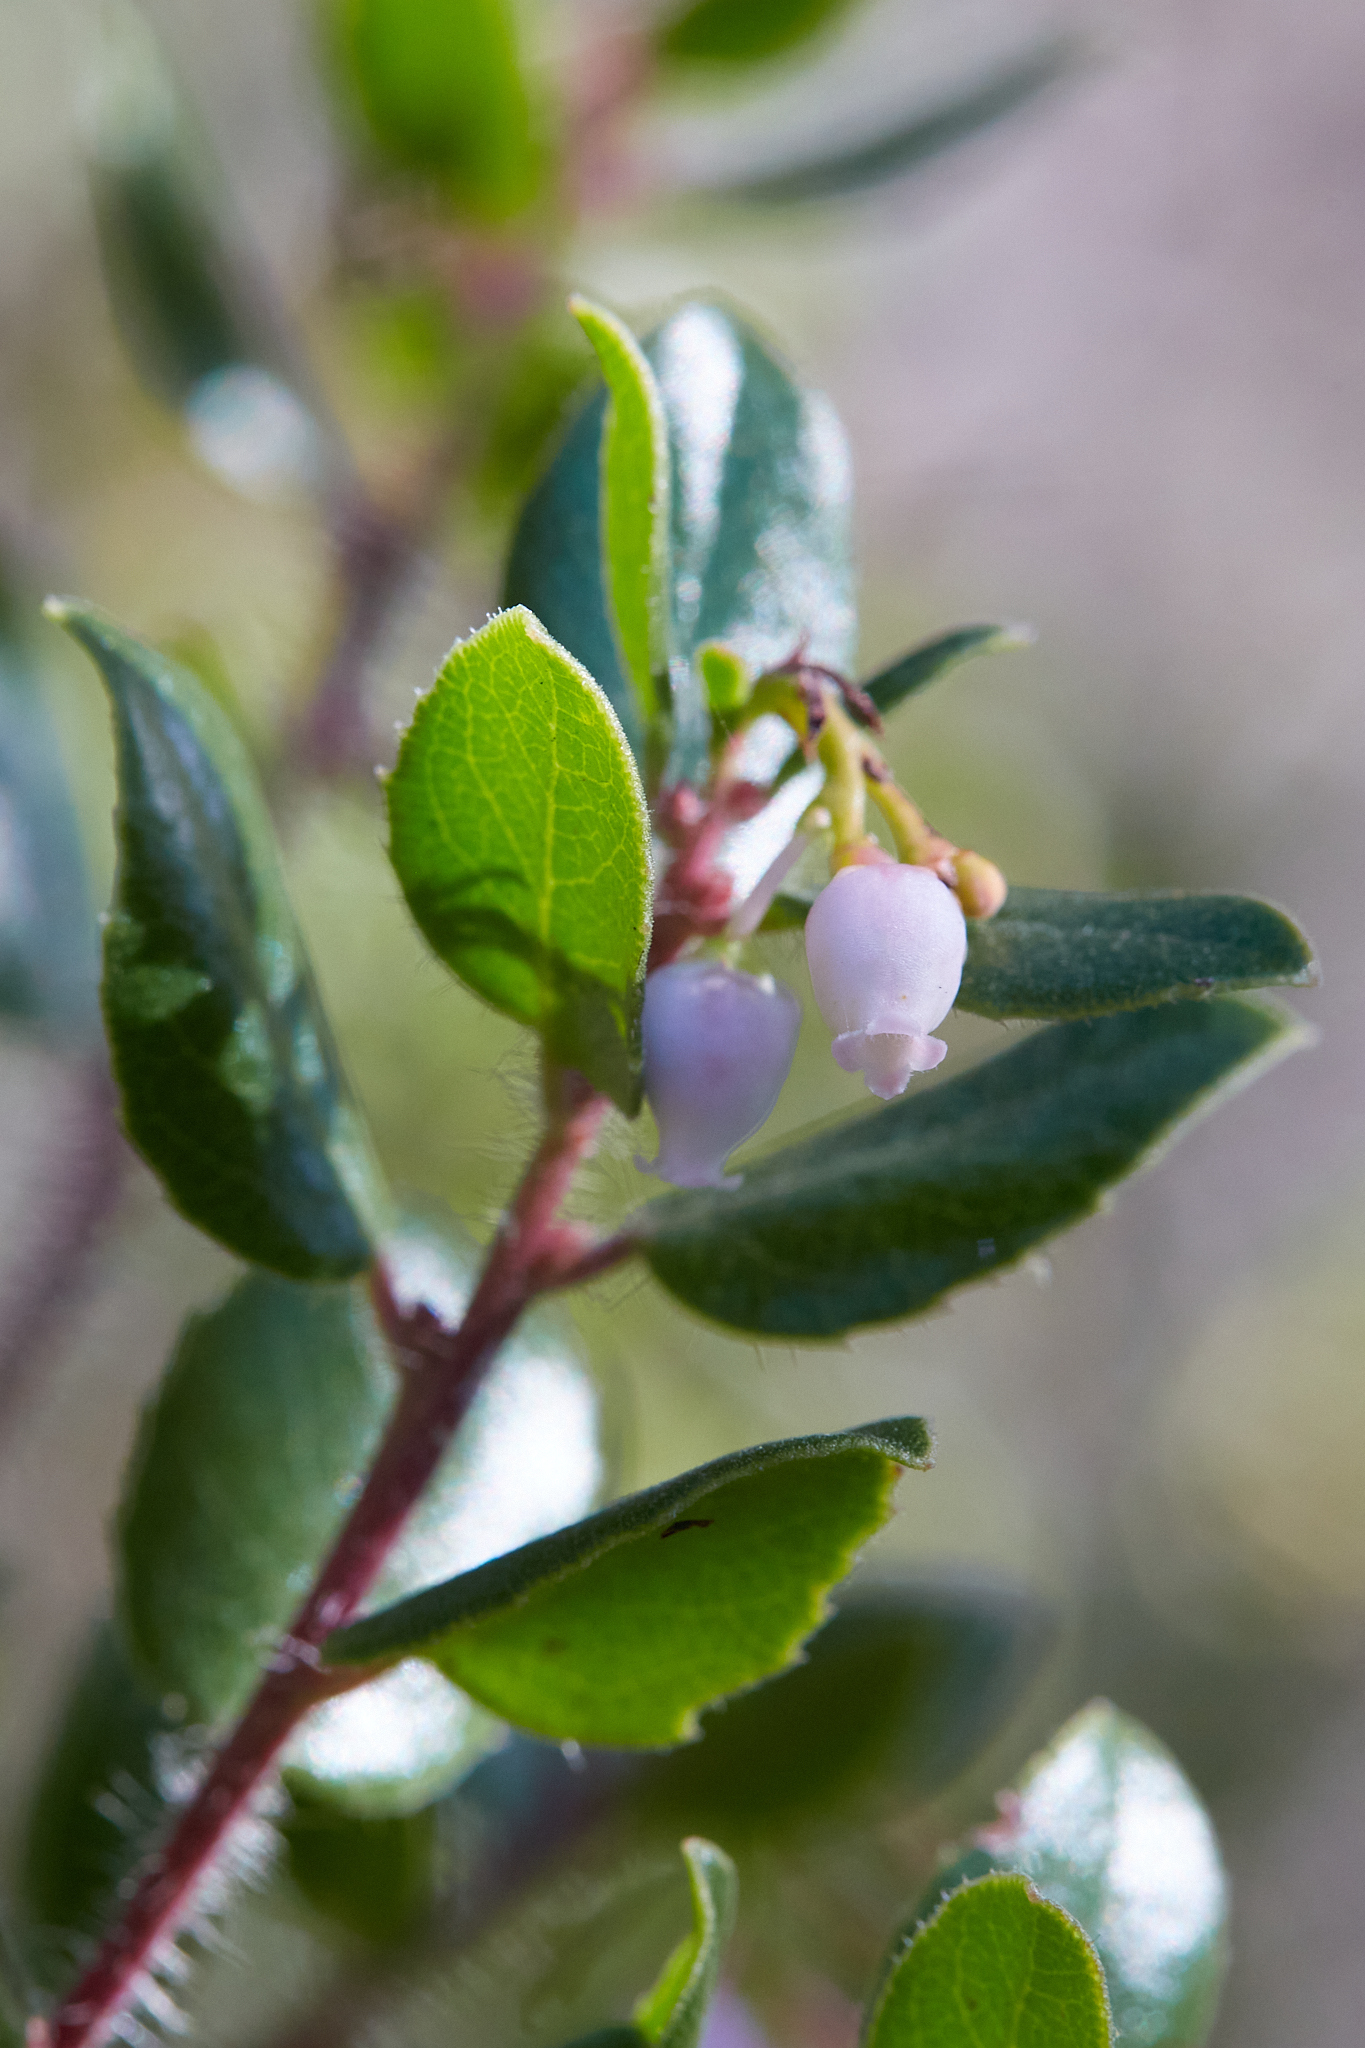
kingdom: Plantae
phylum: Tracheophyta
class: Magnoliopsida
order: Ericales
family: Ericaceae
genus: Arctostaphylos
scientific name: Arctostaphylos nummularia
